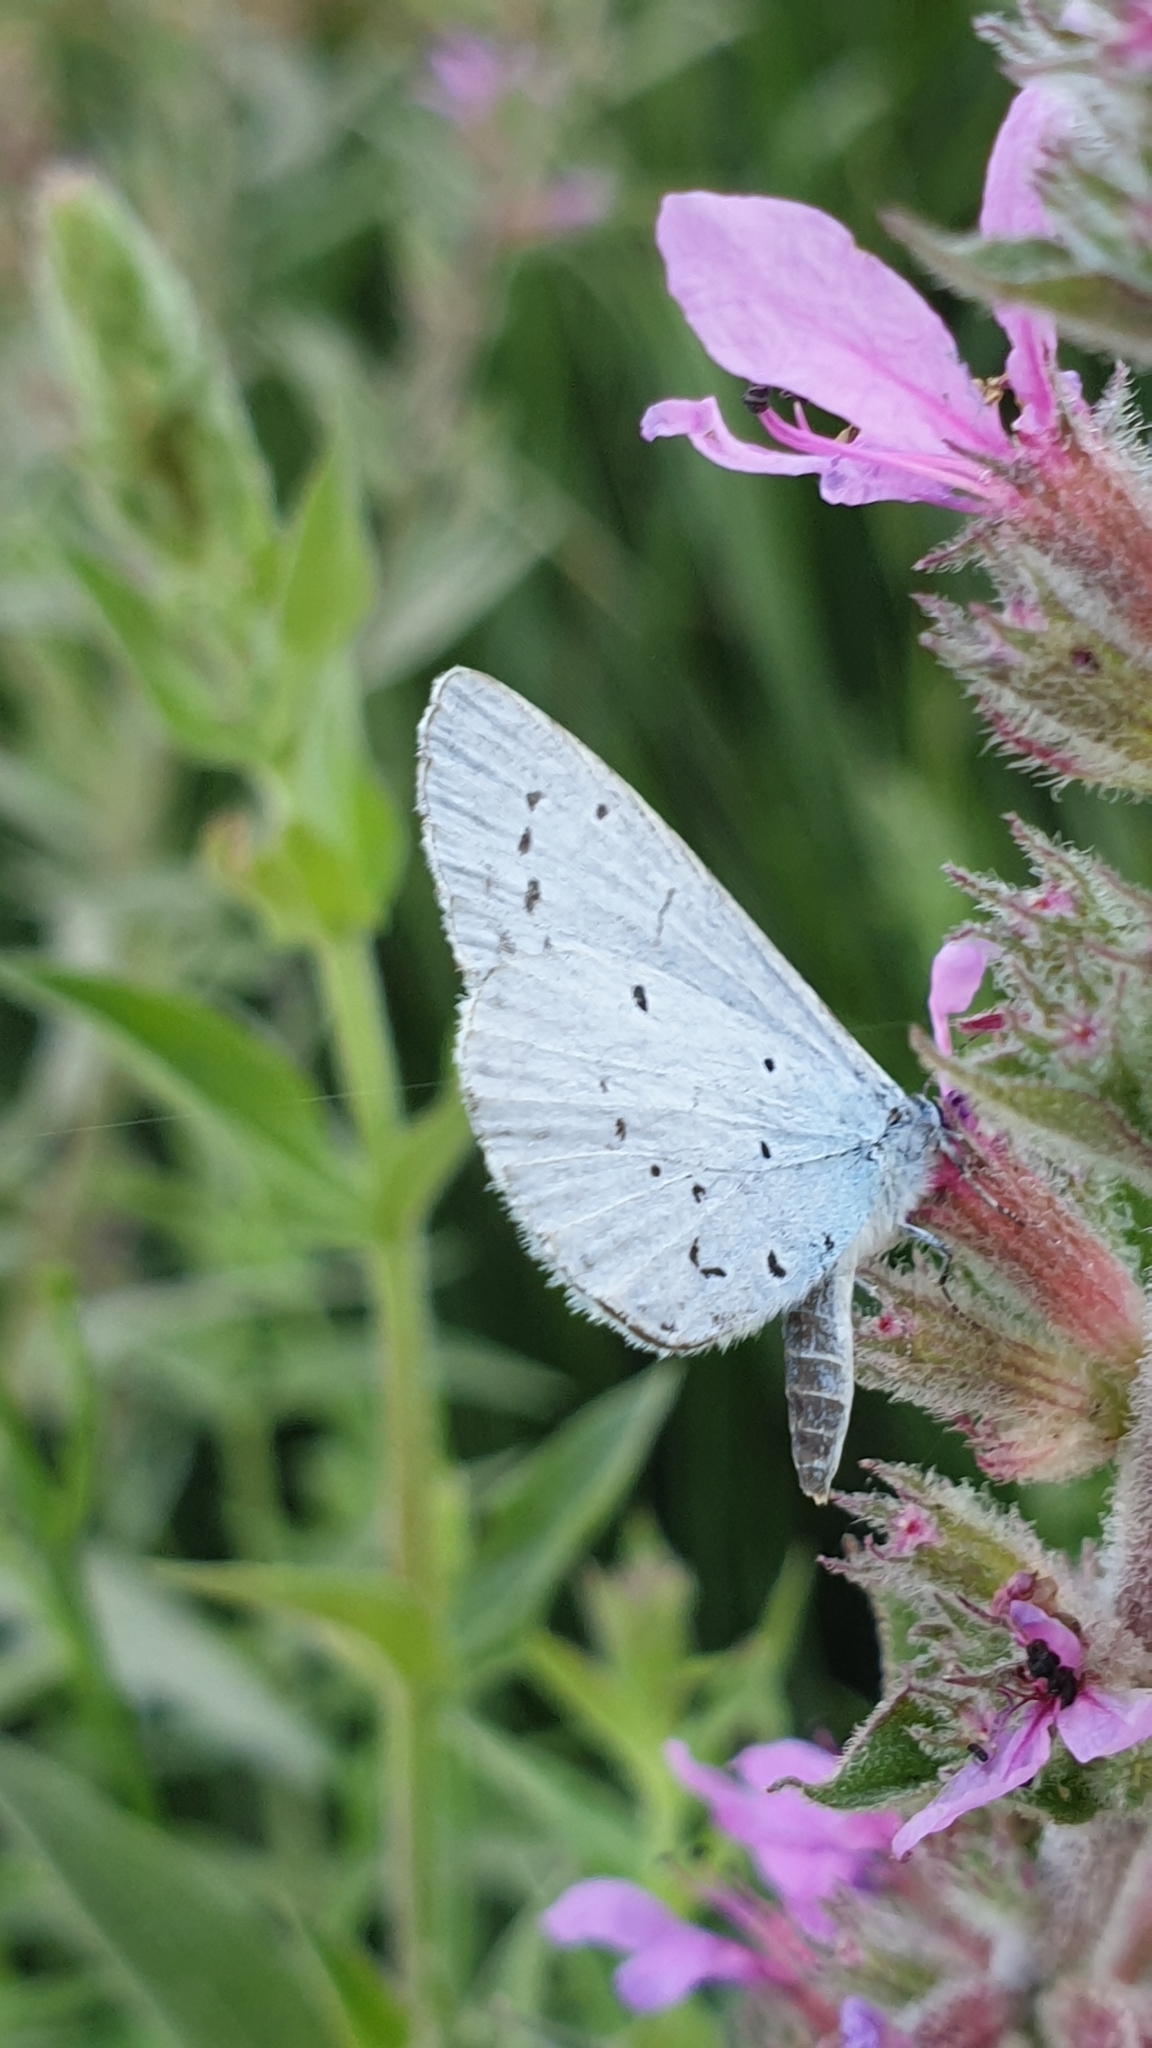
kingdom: Animalia
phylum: Arthropoda
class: Insecta
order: Lepidoptera
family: Lycaenidae
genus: Celastrina
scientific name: Celastrina argiolus
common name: Holly blue
